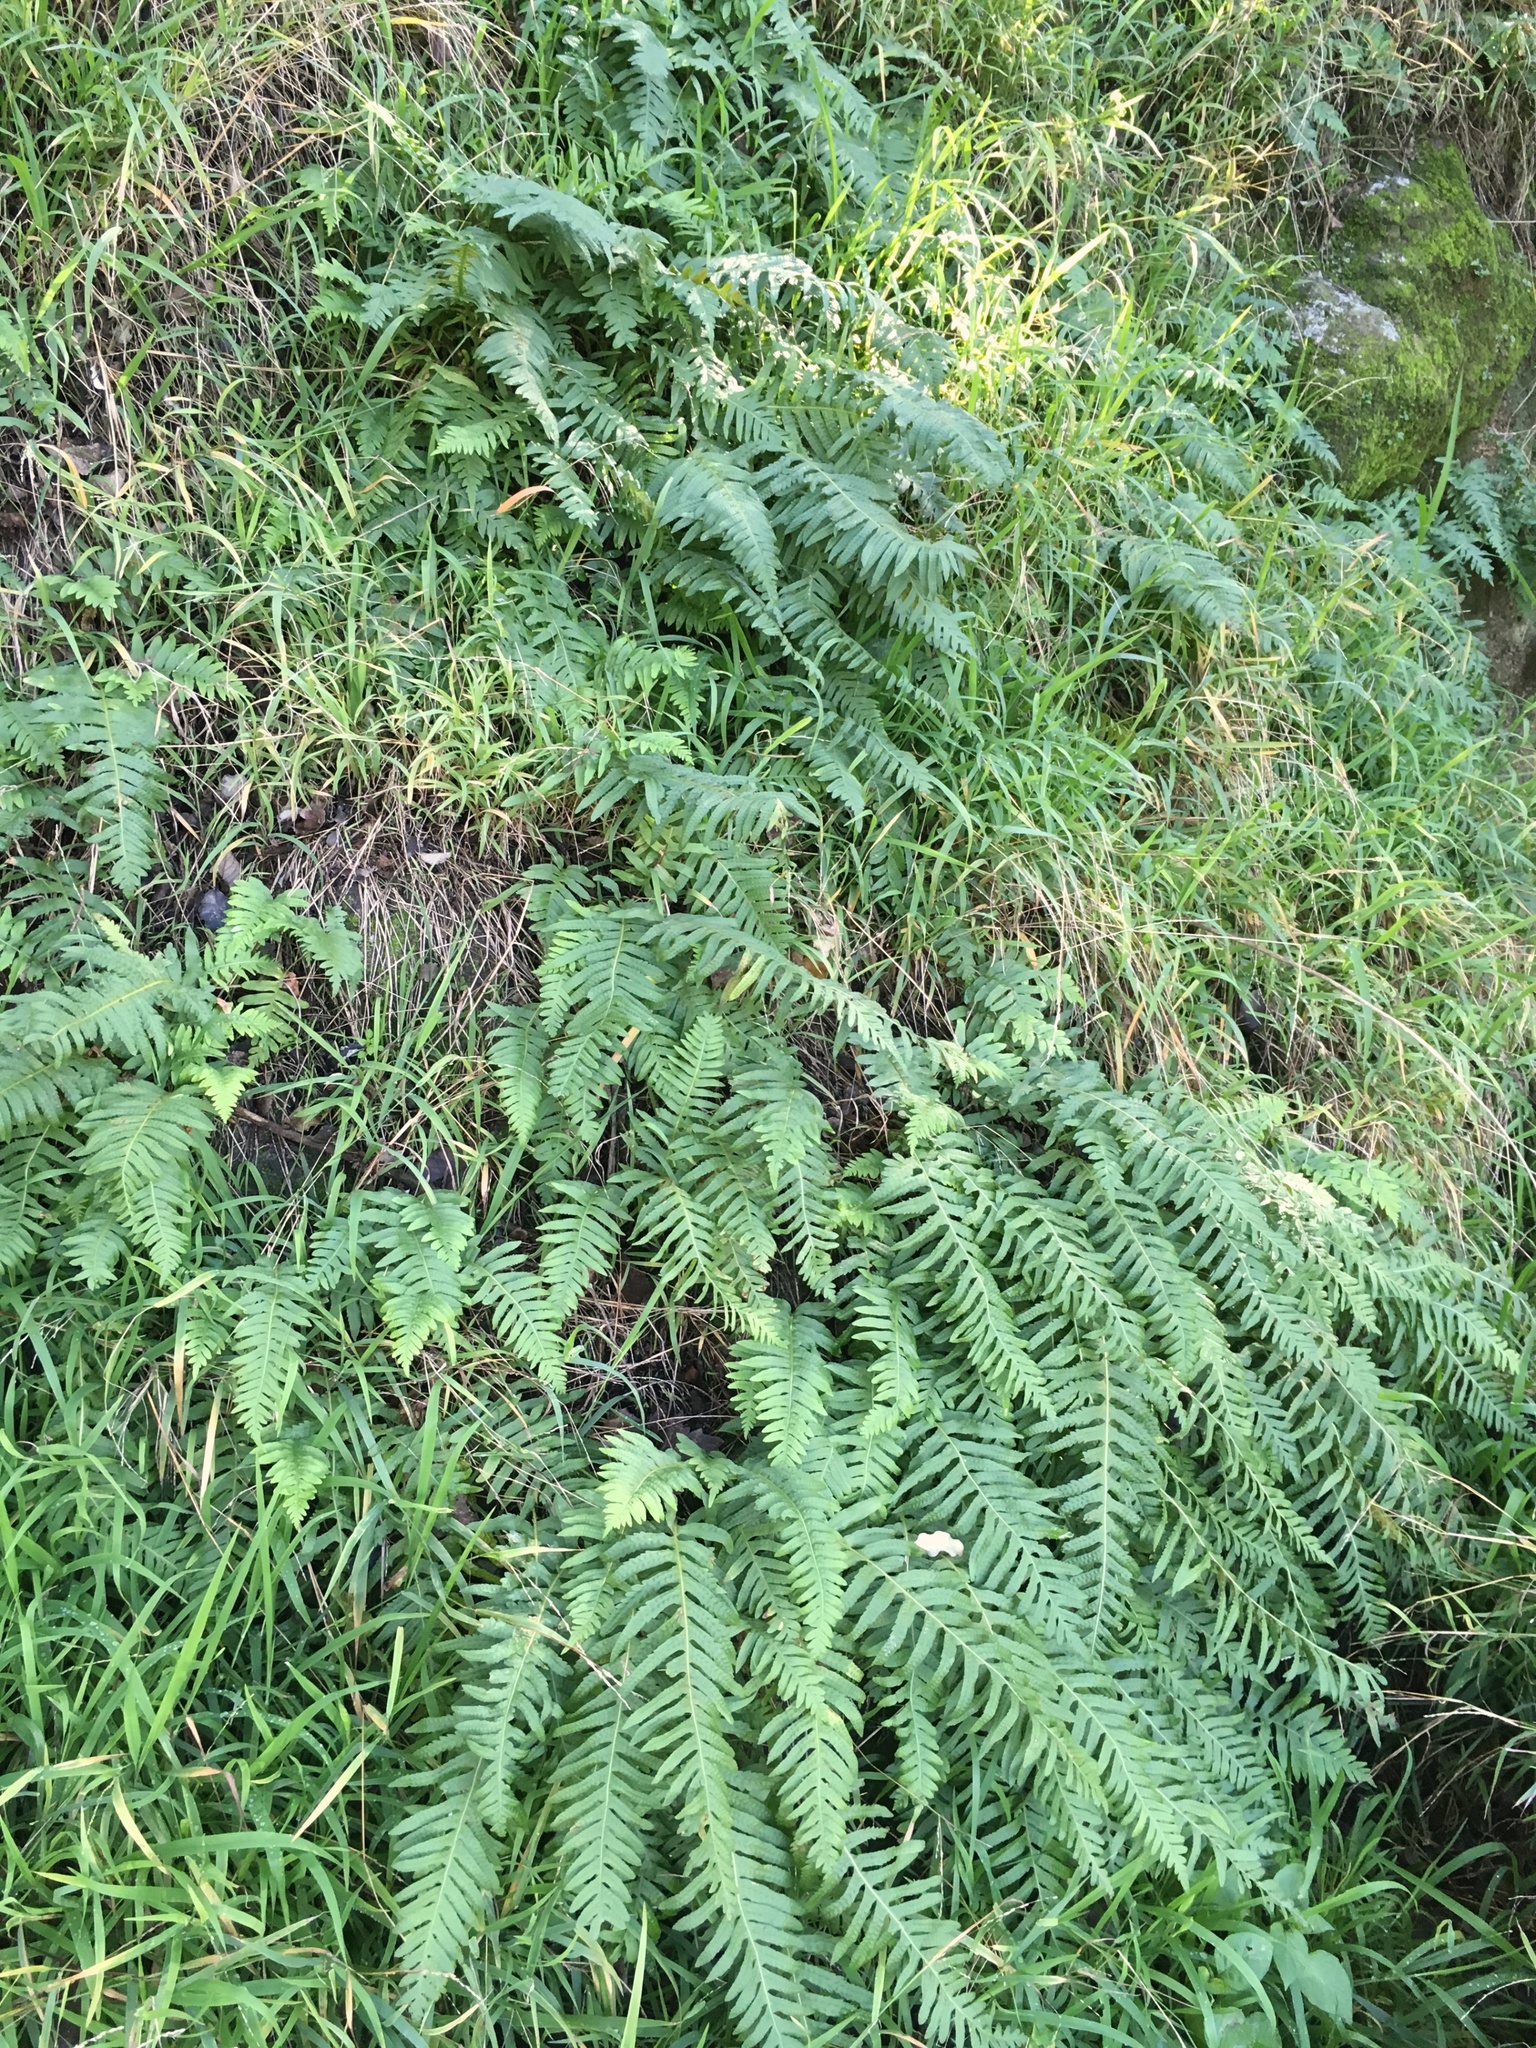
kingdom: Plantae
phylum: Tracheophyta
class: Polypodiopsida
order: Polypodiales
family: Polypodiaceae
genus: Polypodium
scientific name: Polypodium vulgare
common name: Common polypody
